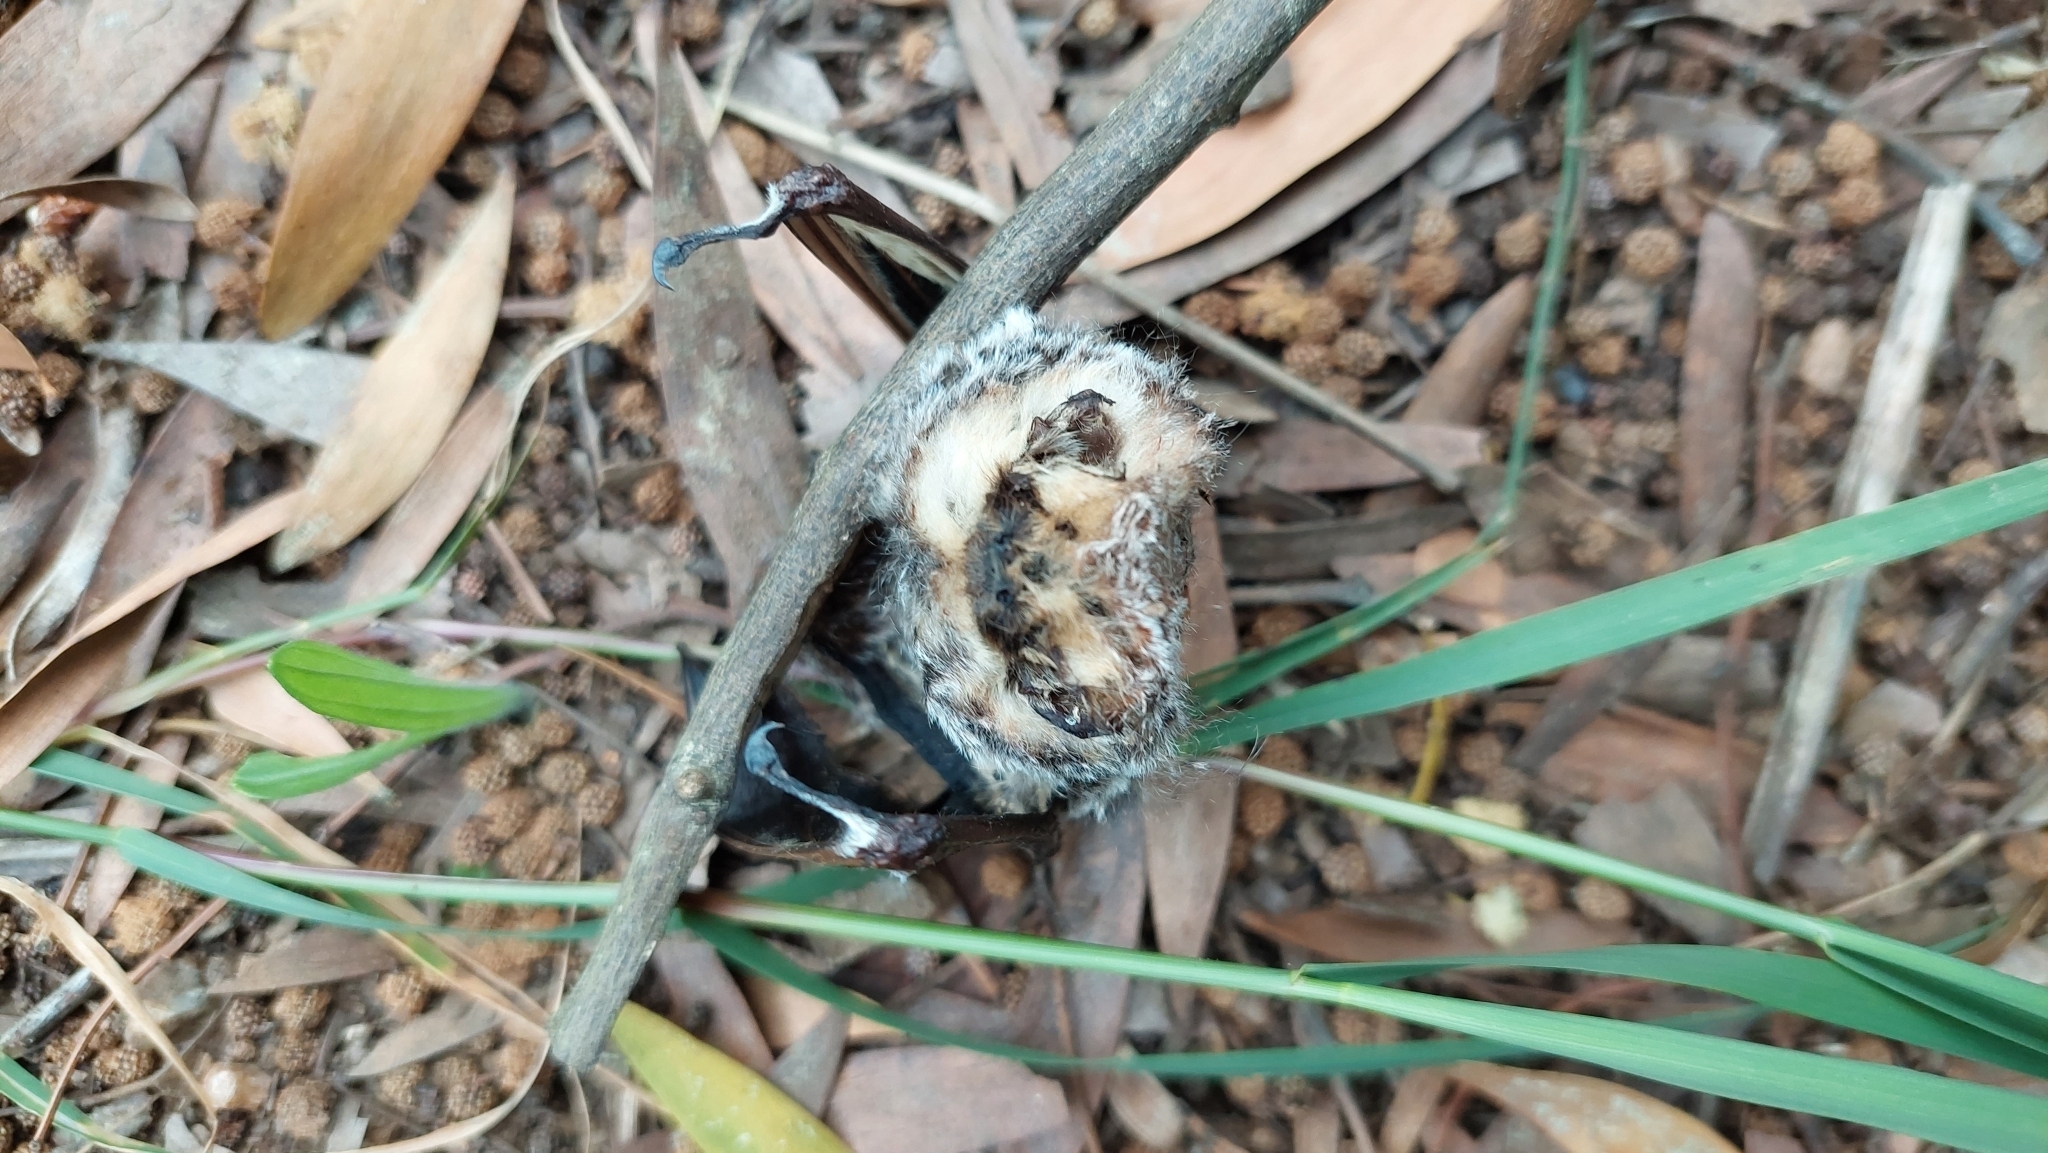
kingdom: Animalia
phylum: Chordata
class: Mammalia
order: Chiroptera
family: Vespertilionidae
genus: Aeorestes
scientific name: Aeorestes villosissimus
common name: South american hoary bat
